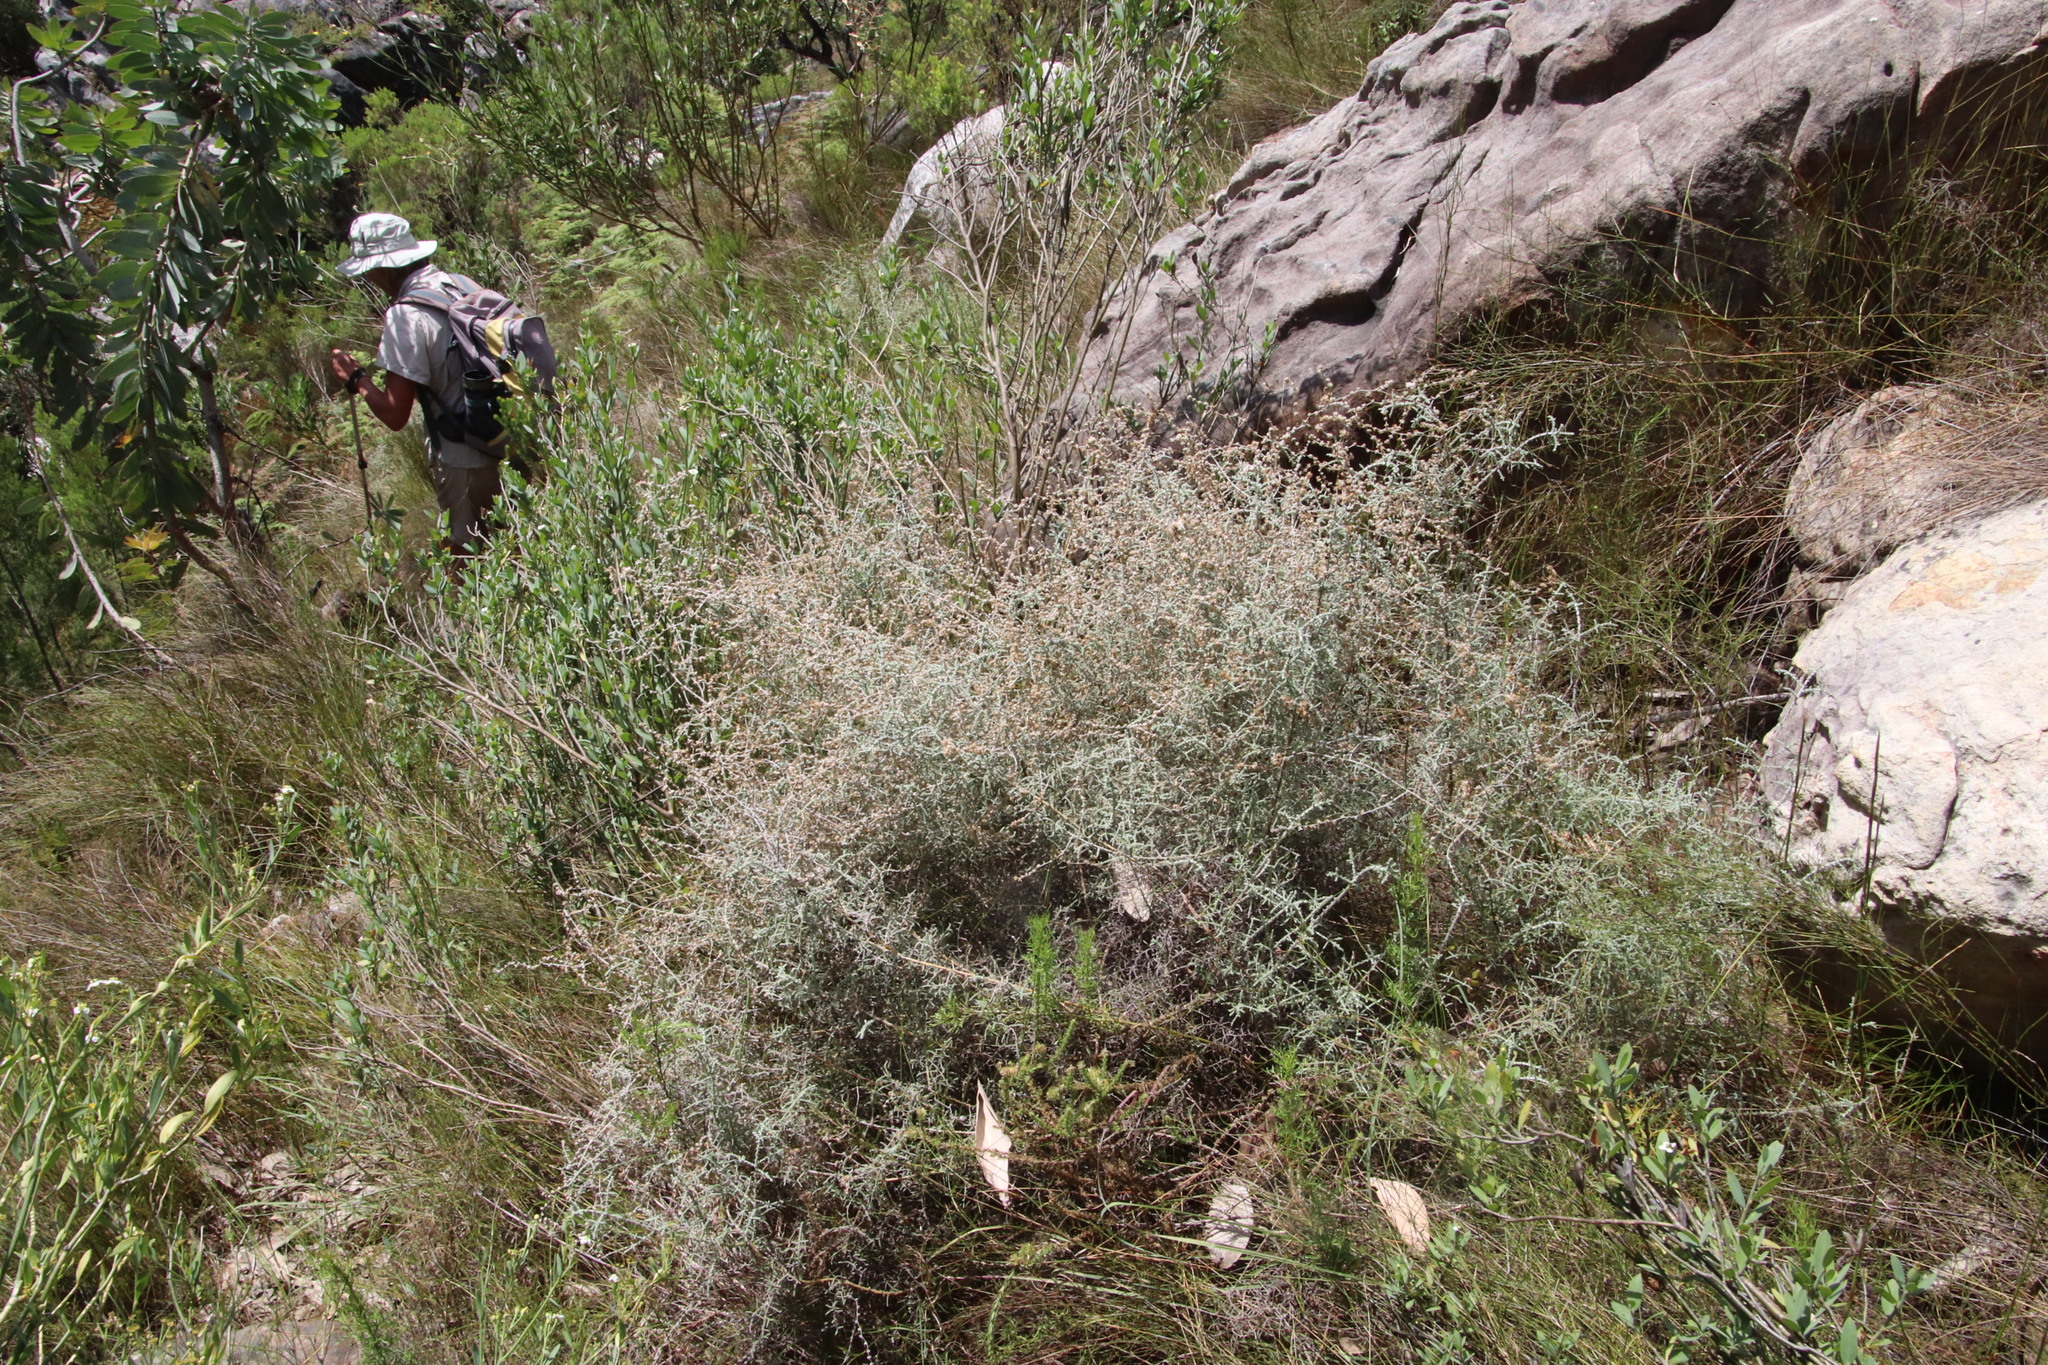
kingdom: Plantae
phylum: Tracheophyta
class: Magnoliopsida
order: Asterales
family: Asteraceae
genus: Seriphium
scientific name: Seriphium plumosum
